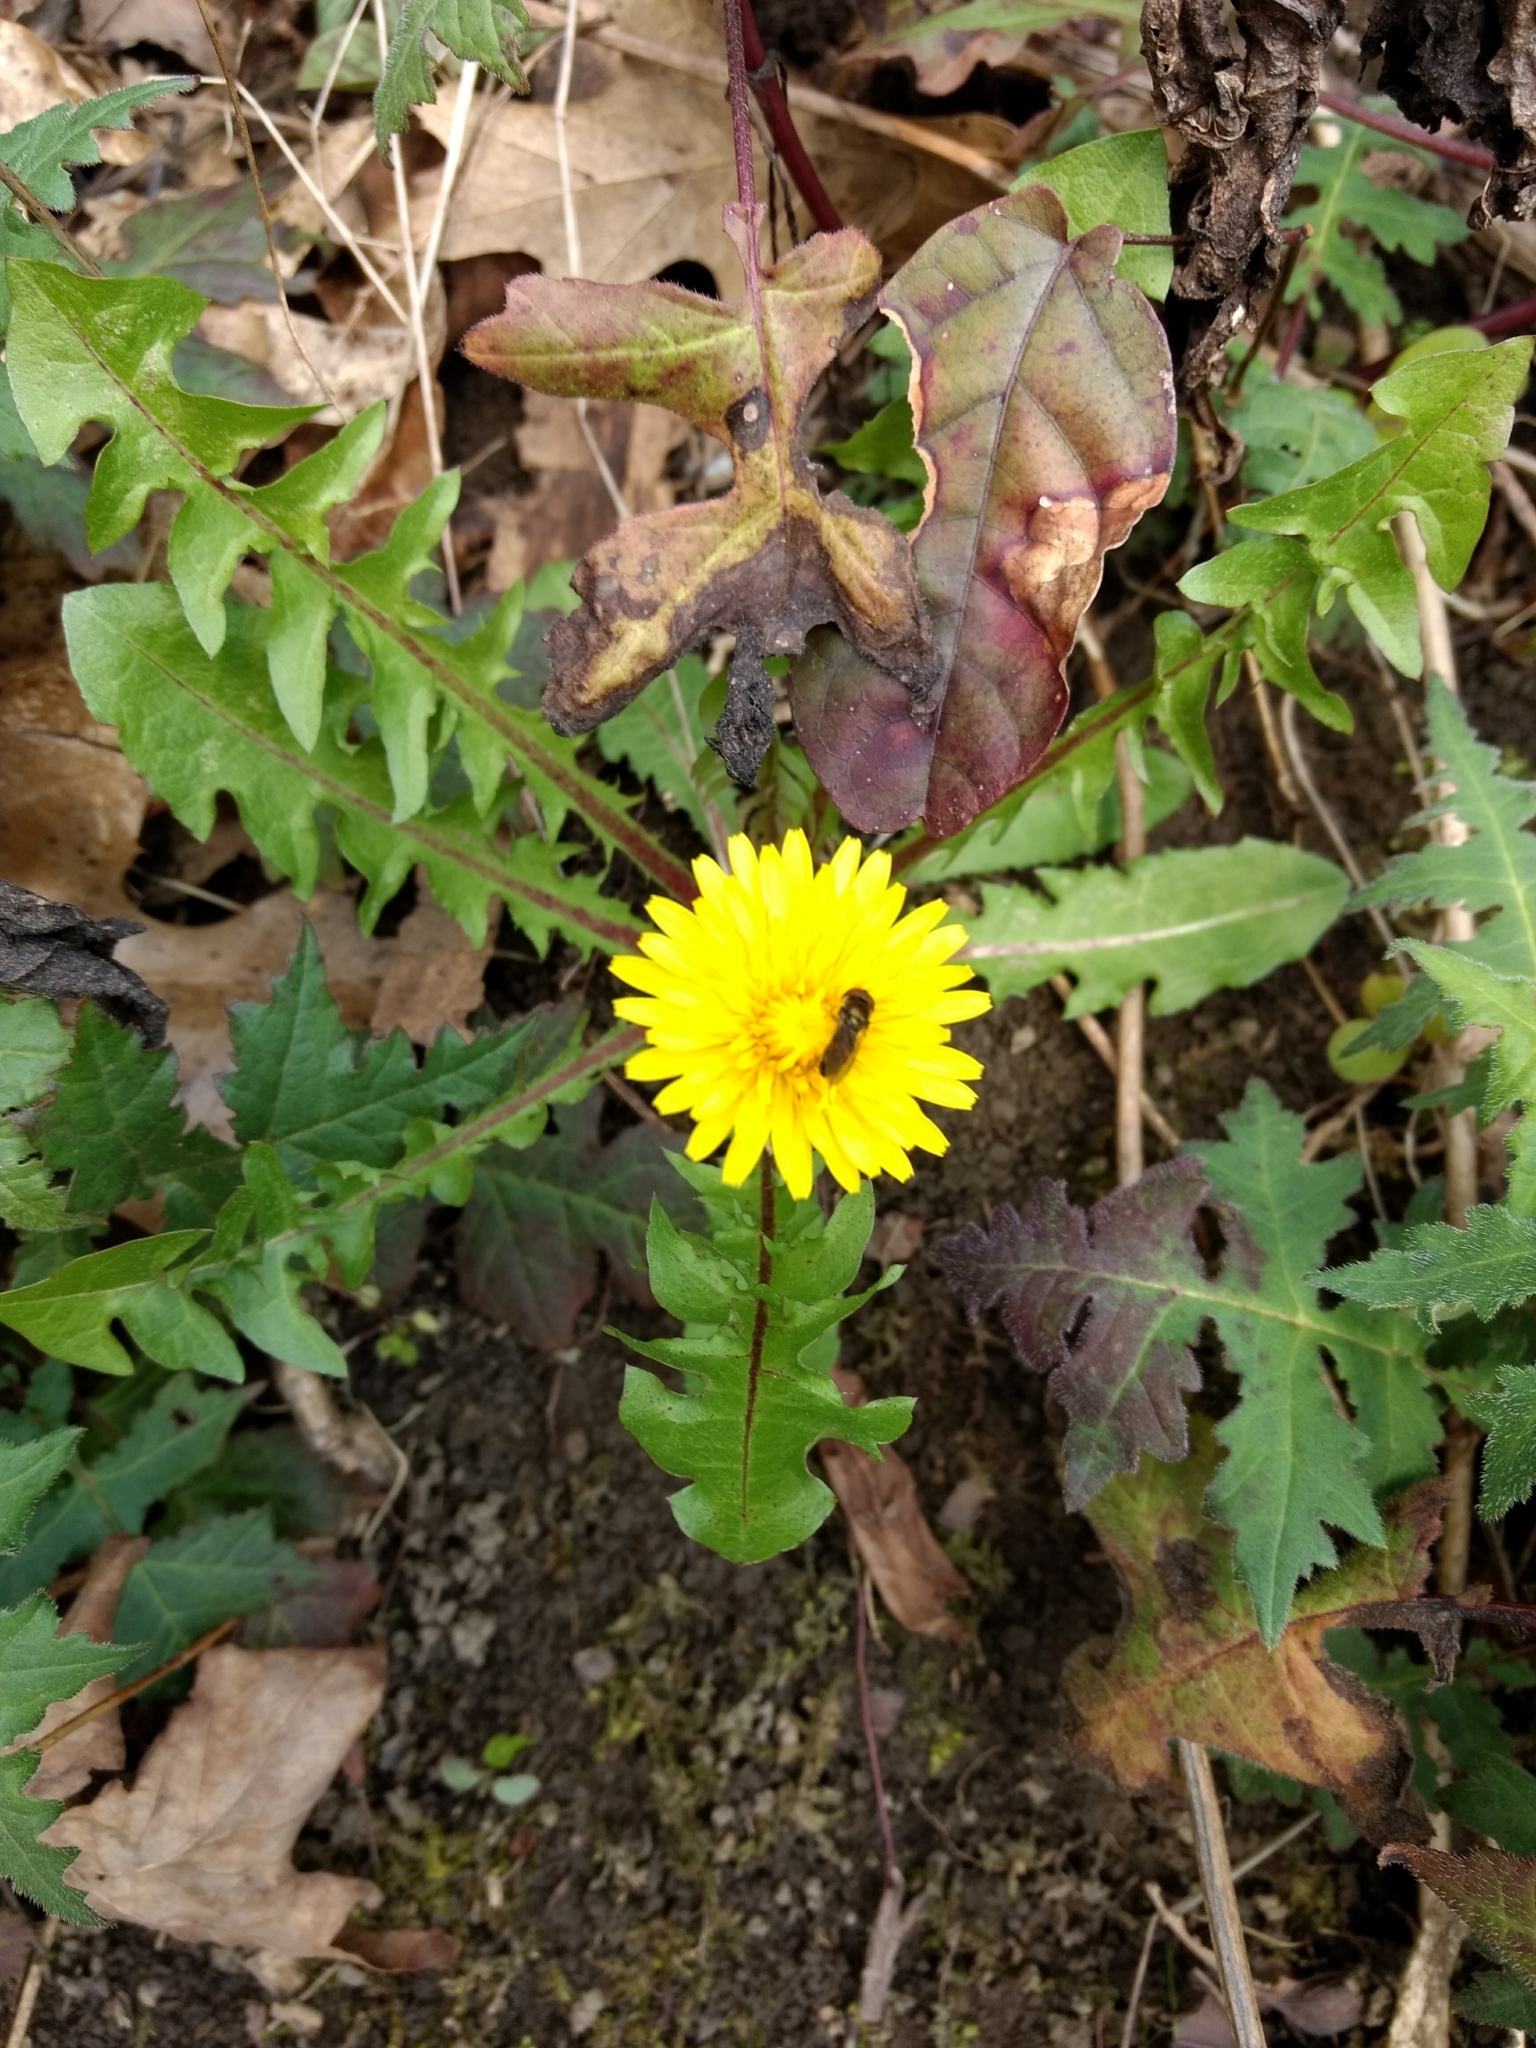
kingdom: Plantae
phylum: Tracheophyta
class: Magnoliopsida
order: Asterales
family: Asteraceae
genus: Taraxacum
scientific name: Taraxacum officinale
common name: Common dandelion
